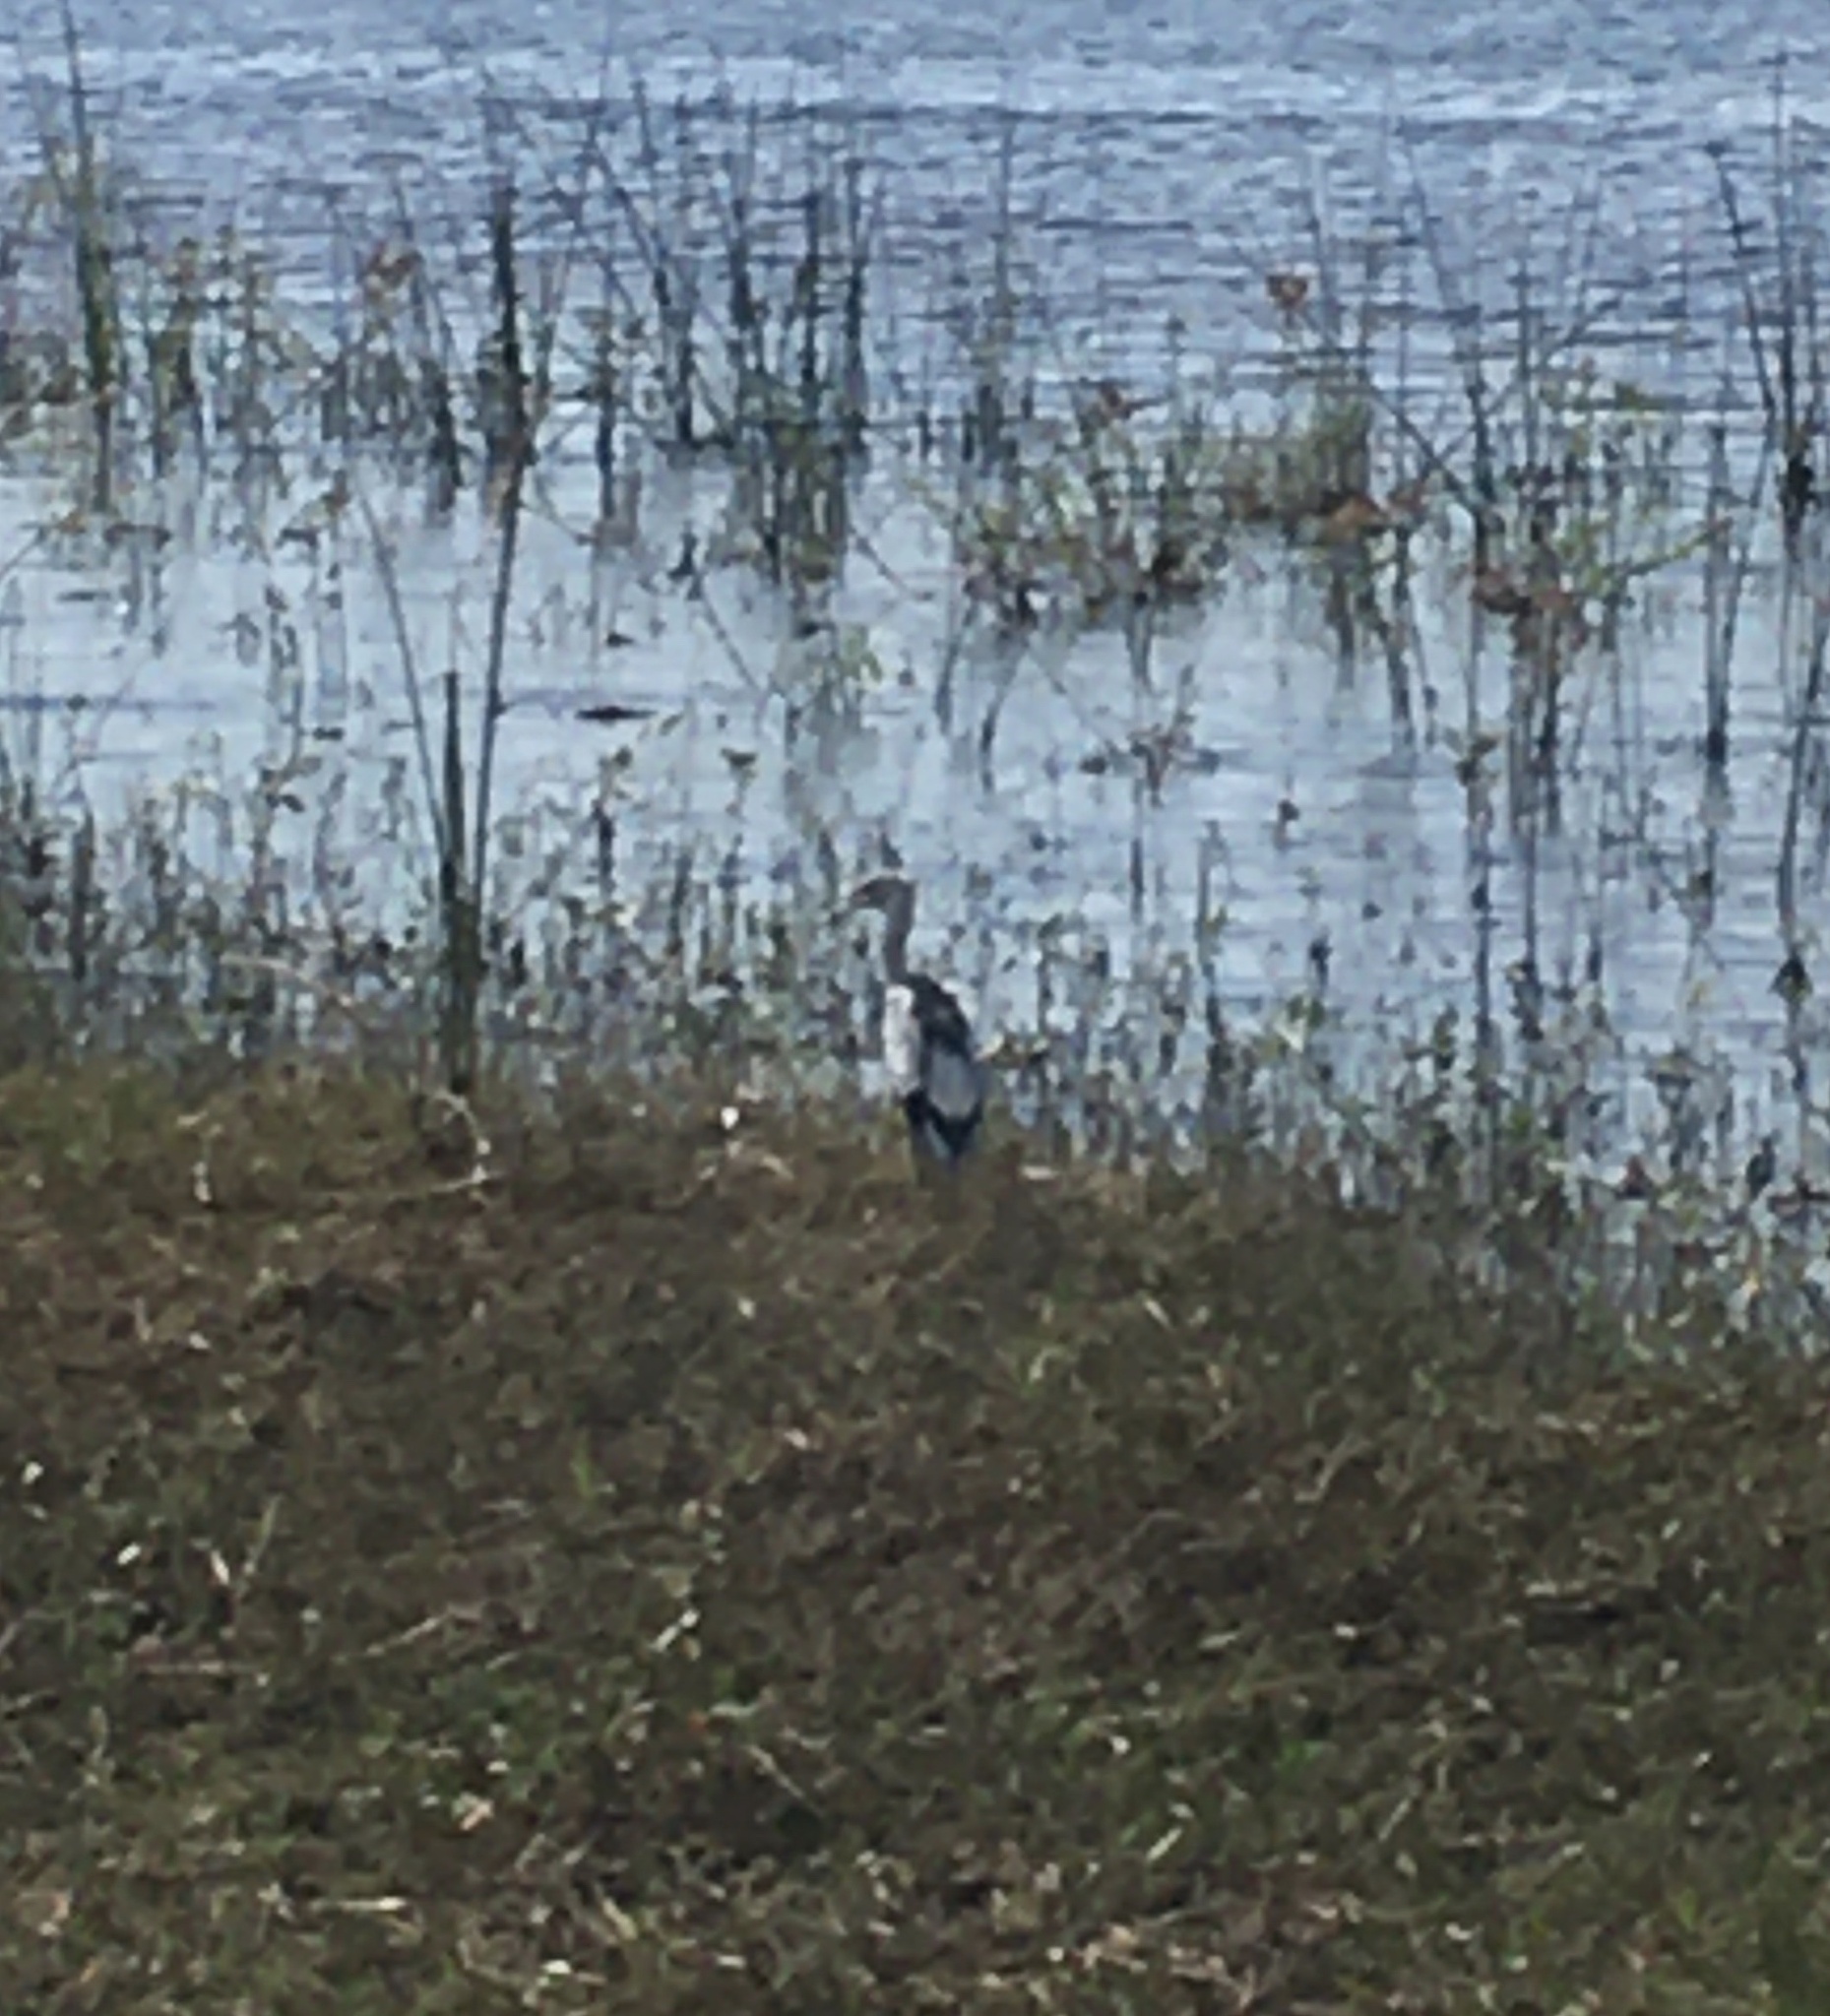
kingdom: Animalia
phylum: Chordata
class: Aves
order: Pelecaniformes
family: Ardeidae
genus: Egretta
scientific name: Egretta caerulea
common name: Little blue heron
